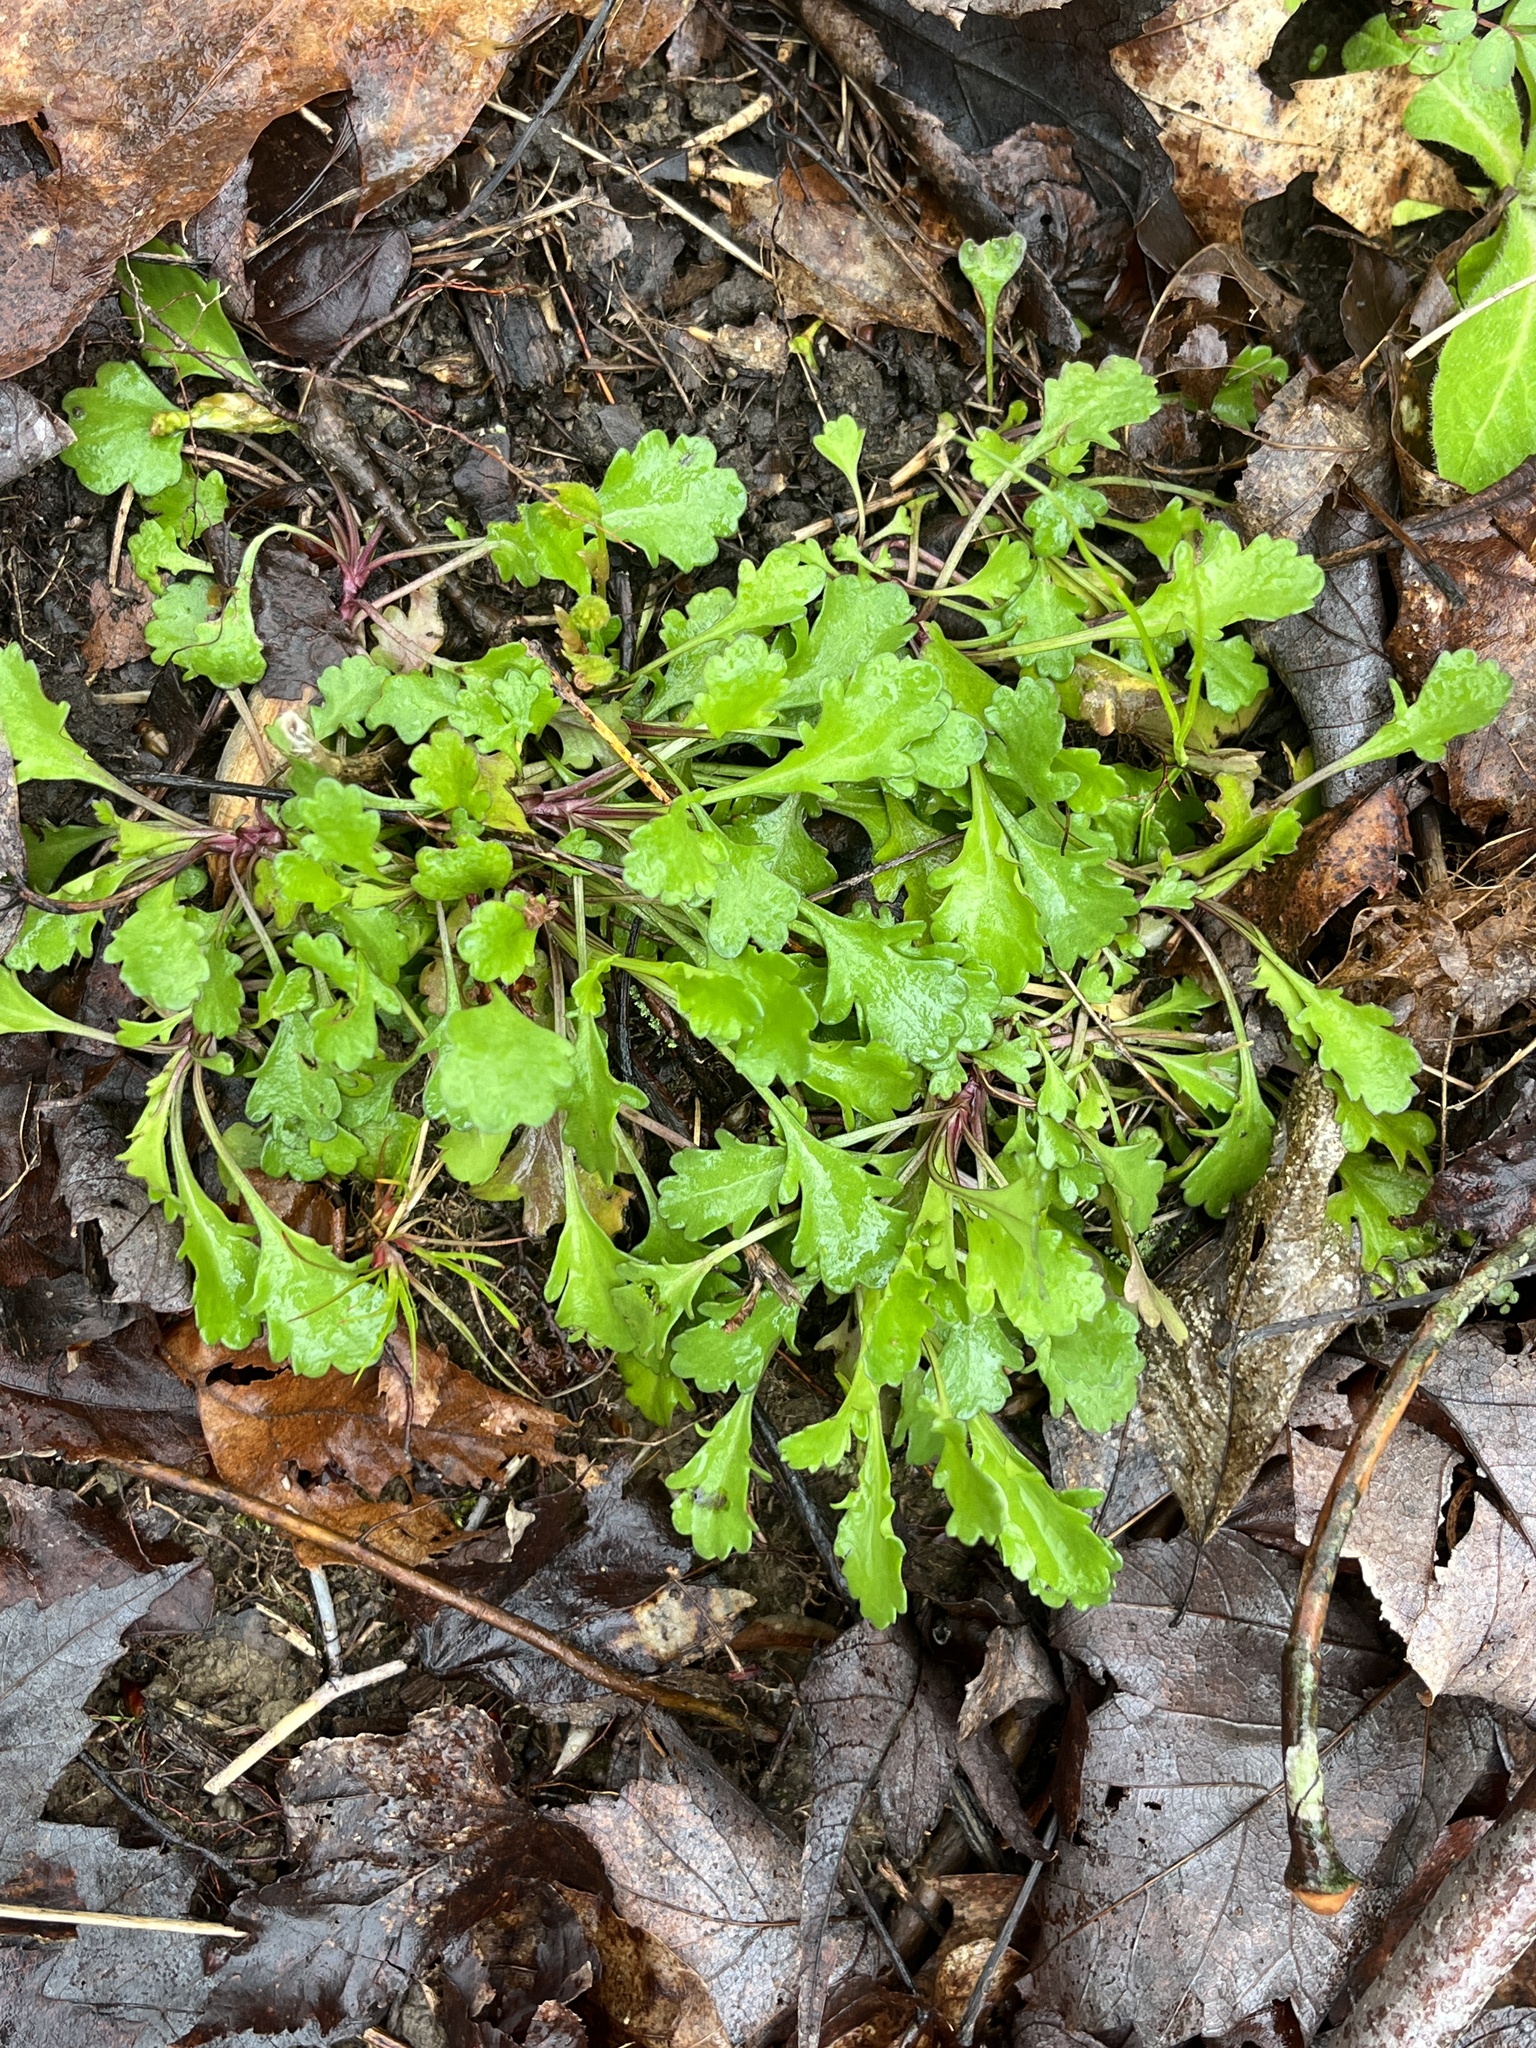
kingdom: Plantae
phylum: Tracheophyta
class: Magnoliopsida
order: Asterales
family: Asteraceae
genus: Leucanthemum
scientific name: Leucanthemum vulgare
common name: Oxeye daisy
